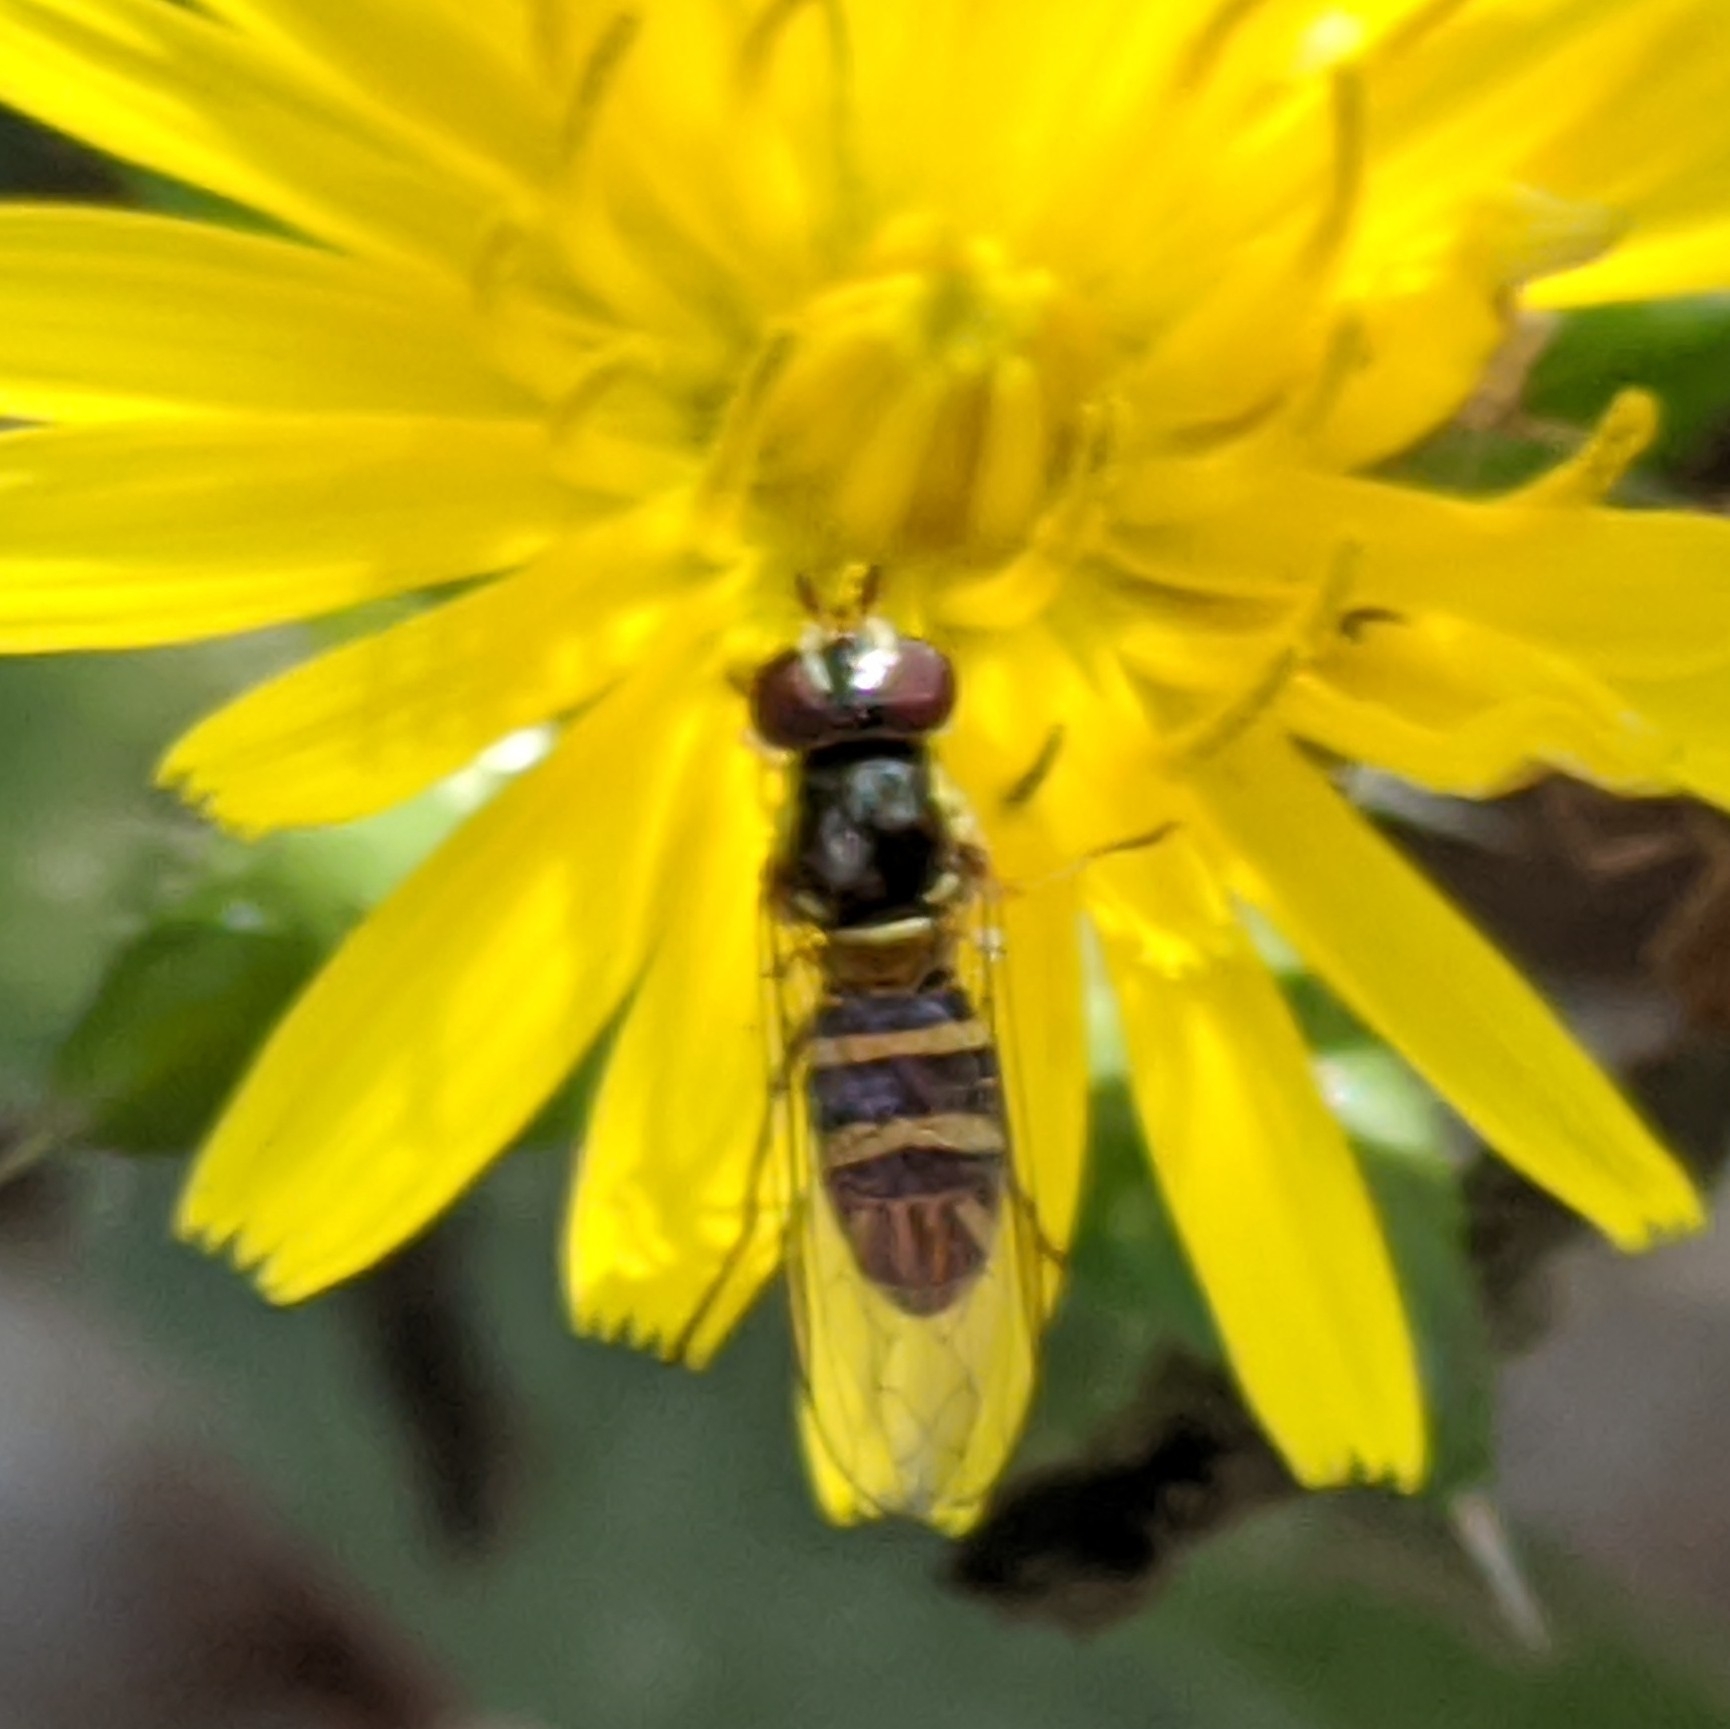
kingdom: Animalia
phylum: Arthropoda
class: Insecta
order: Diptera
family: Syrphidae
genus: Allograpta
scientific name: Allograpta obliqua
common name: Common oblique syrphid
